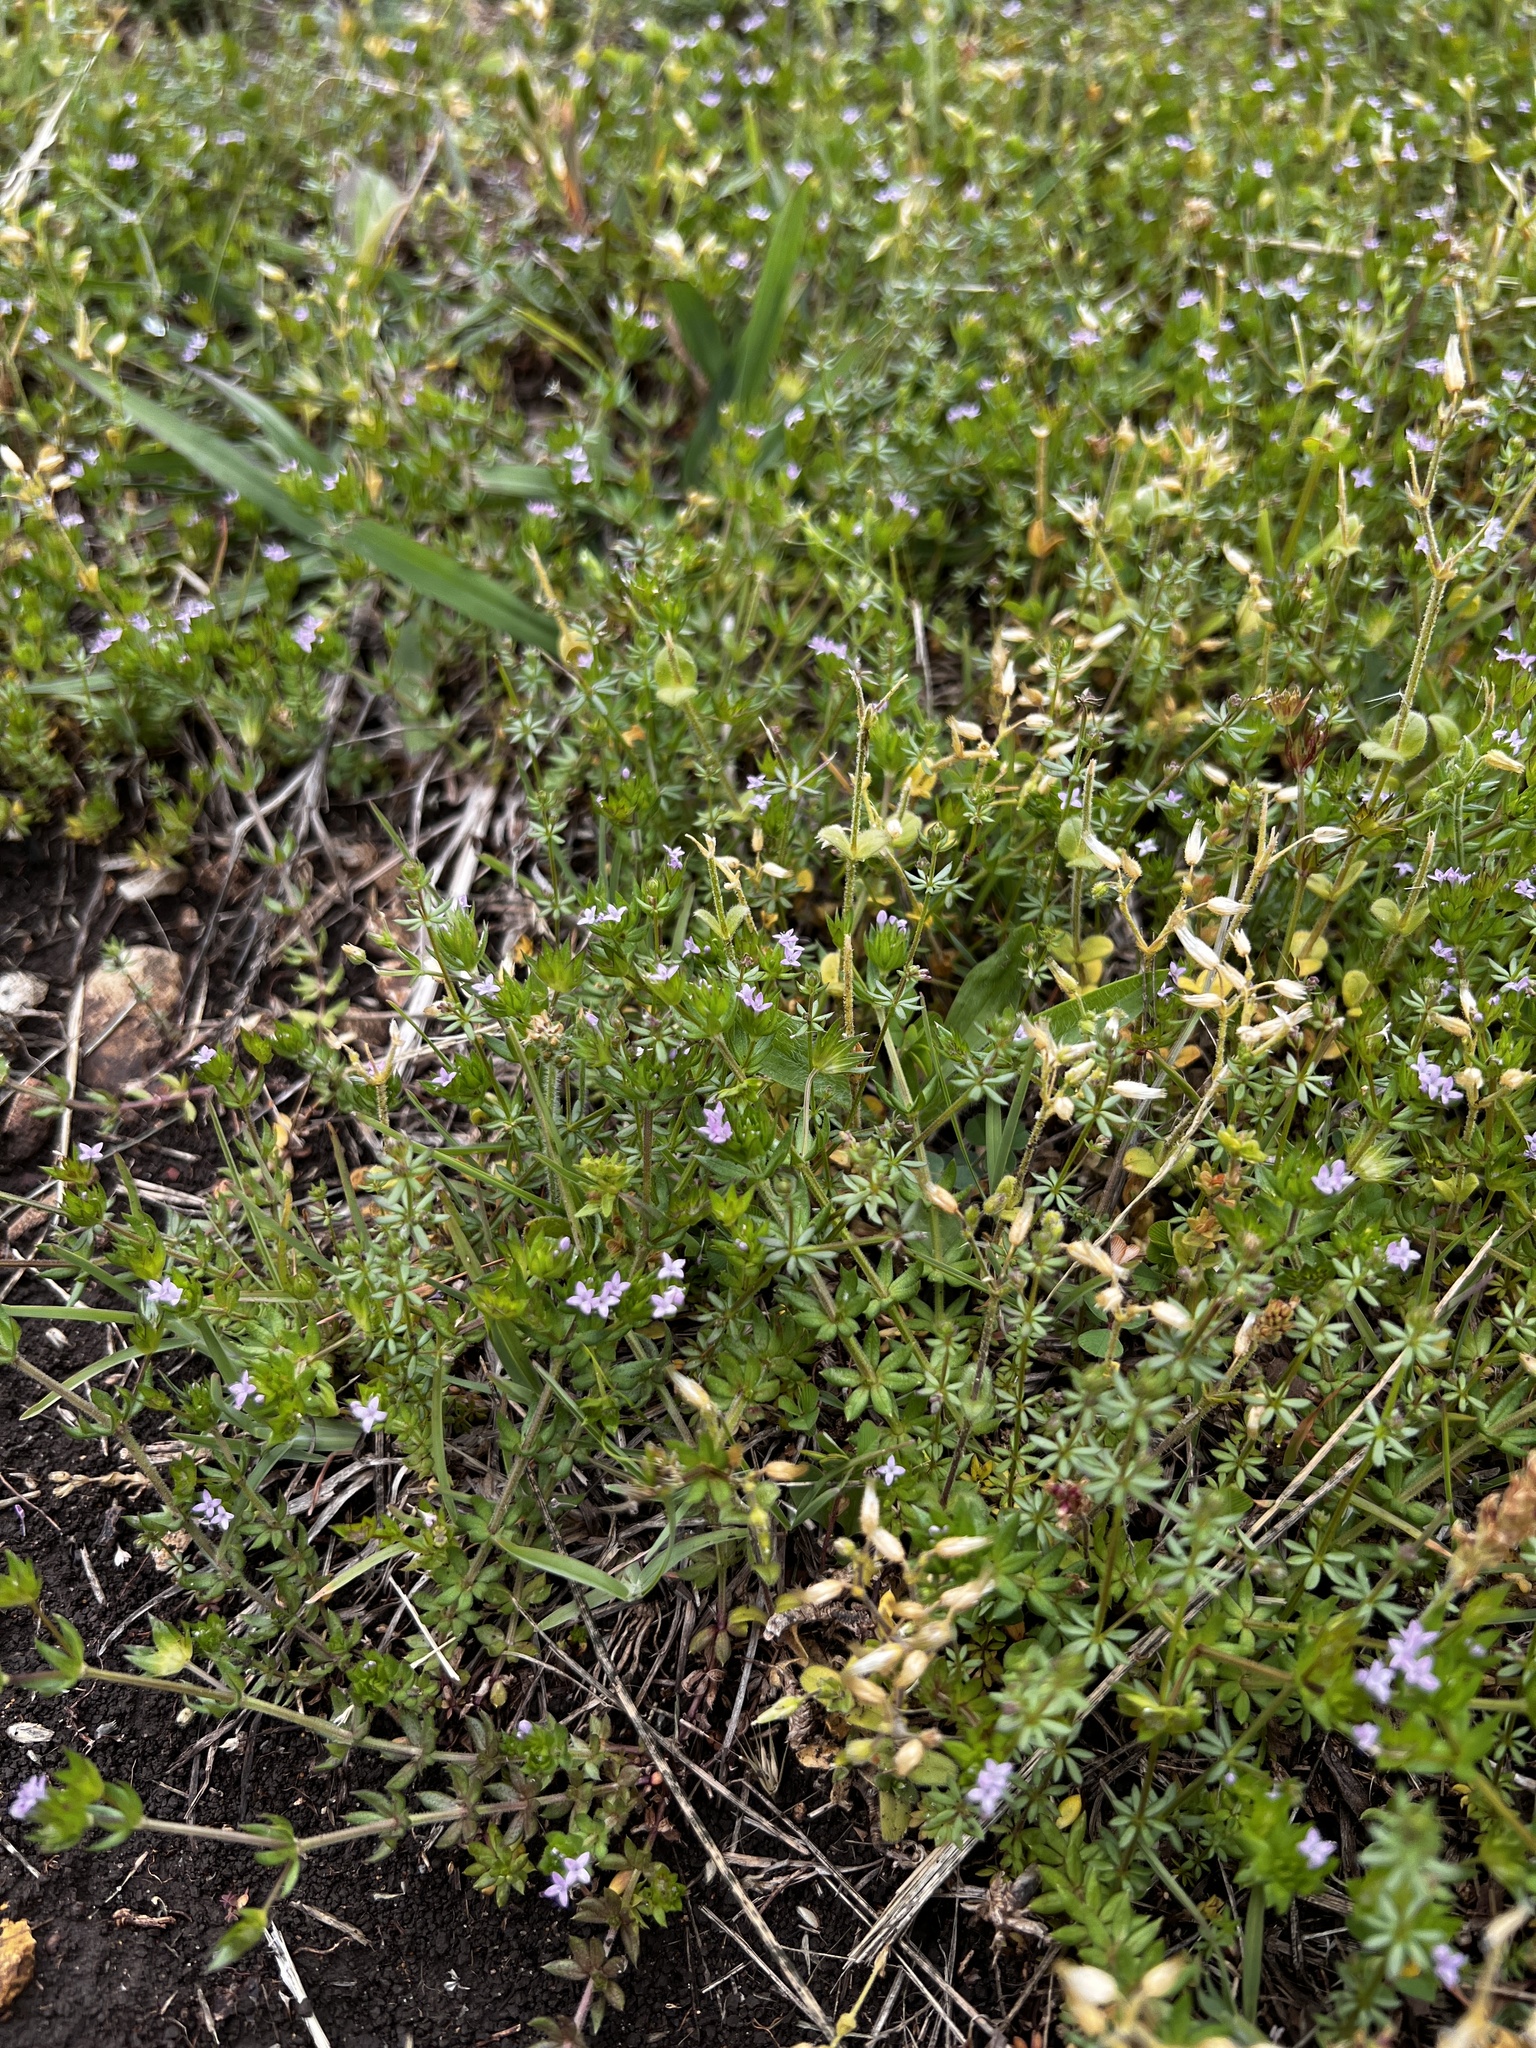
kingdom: Plantae
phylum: Tracheophyta
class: Magnoliopsida
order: Gentianales
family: Rubiaceae
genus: Sherardia
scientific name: Sherardia arvensis
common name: Field madder
